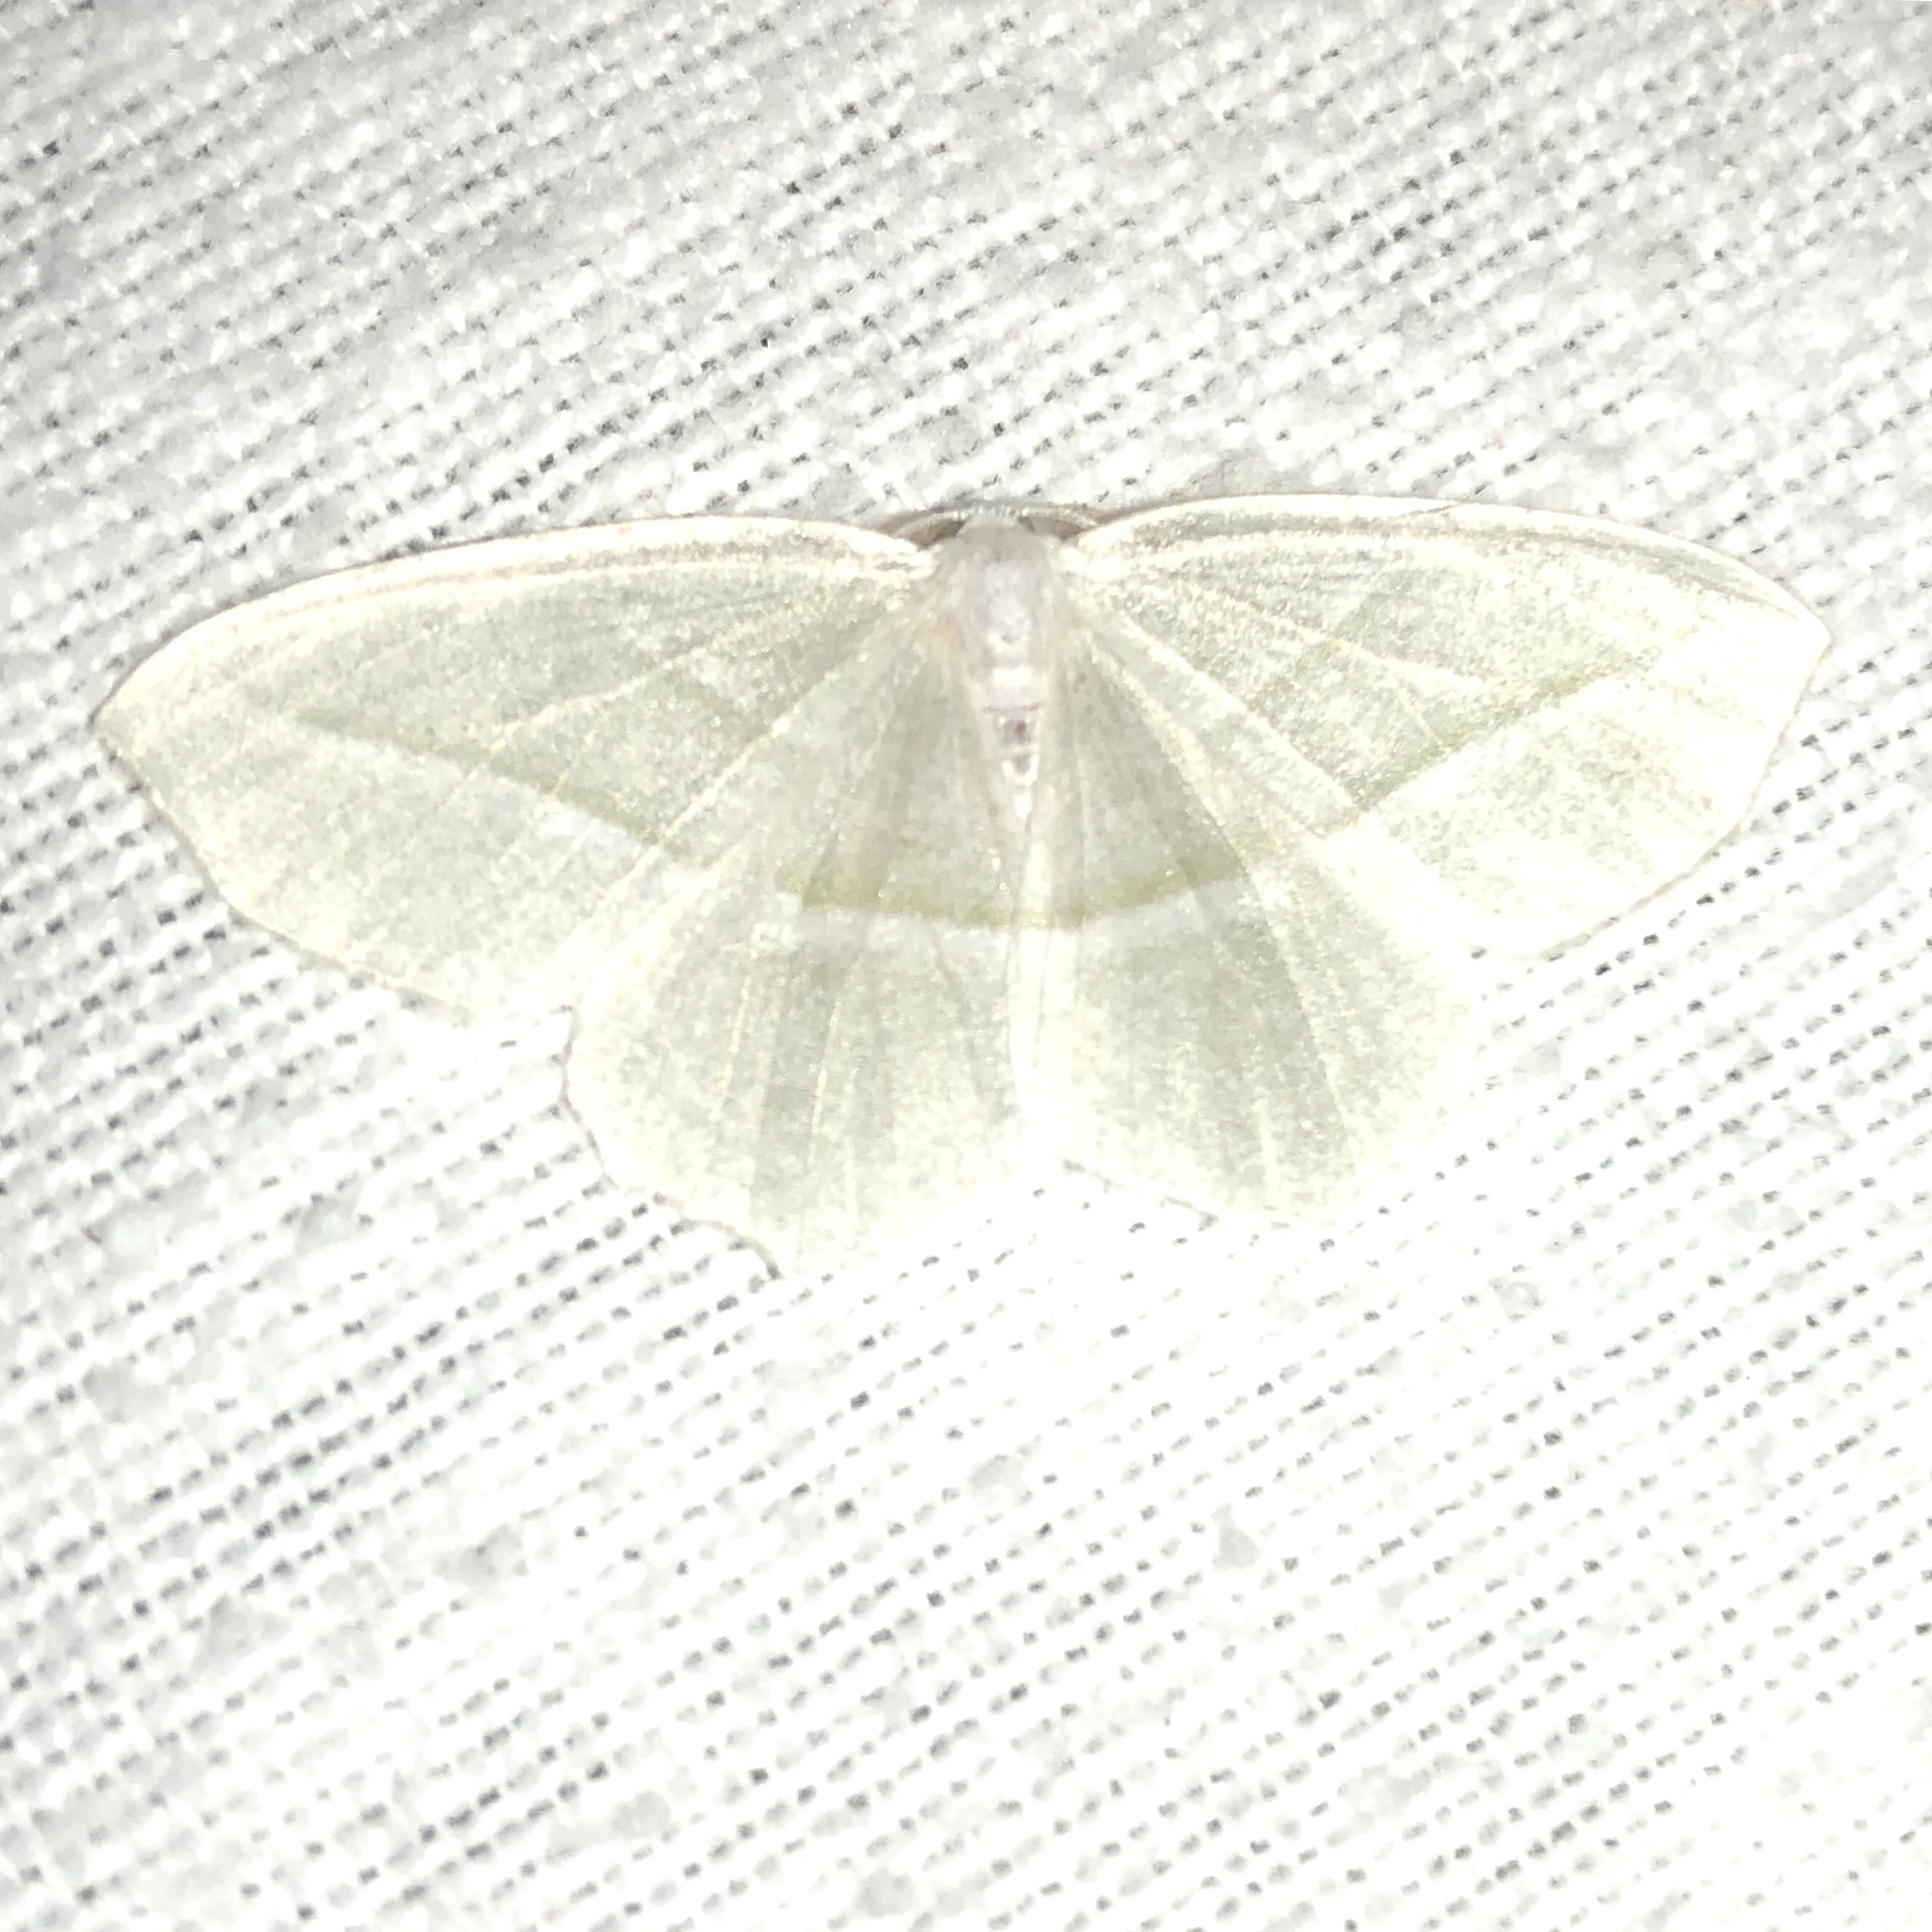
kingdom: Animalia
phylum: Arthropoda
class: Insecta
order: Lepidoptera
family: Geometridae
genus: Campaea
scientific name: Campaea perlata
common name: Fringed looper
